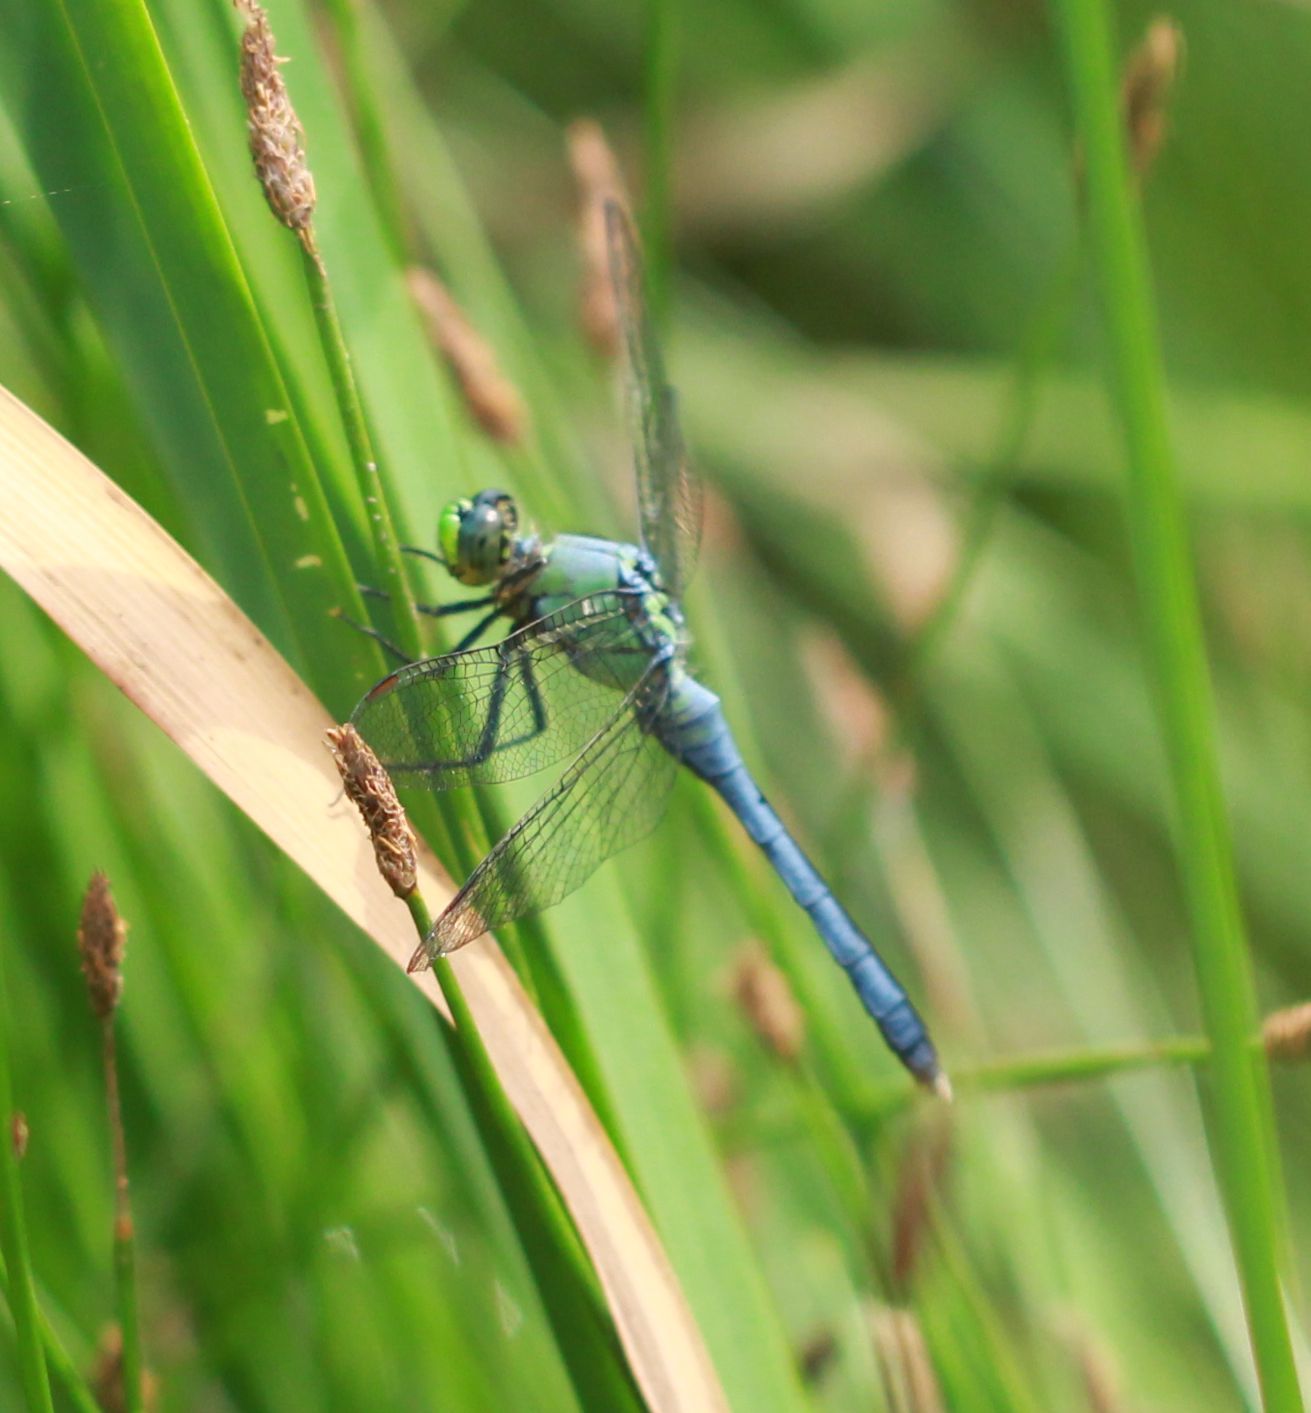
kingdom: Animalia
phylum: Arthropoda
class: Insecta
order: Odonata
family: Libellulidae
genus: Erythemis
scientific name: Erythemis simplicicollis
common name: Eastern pondhawk
